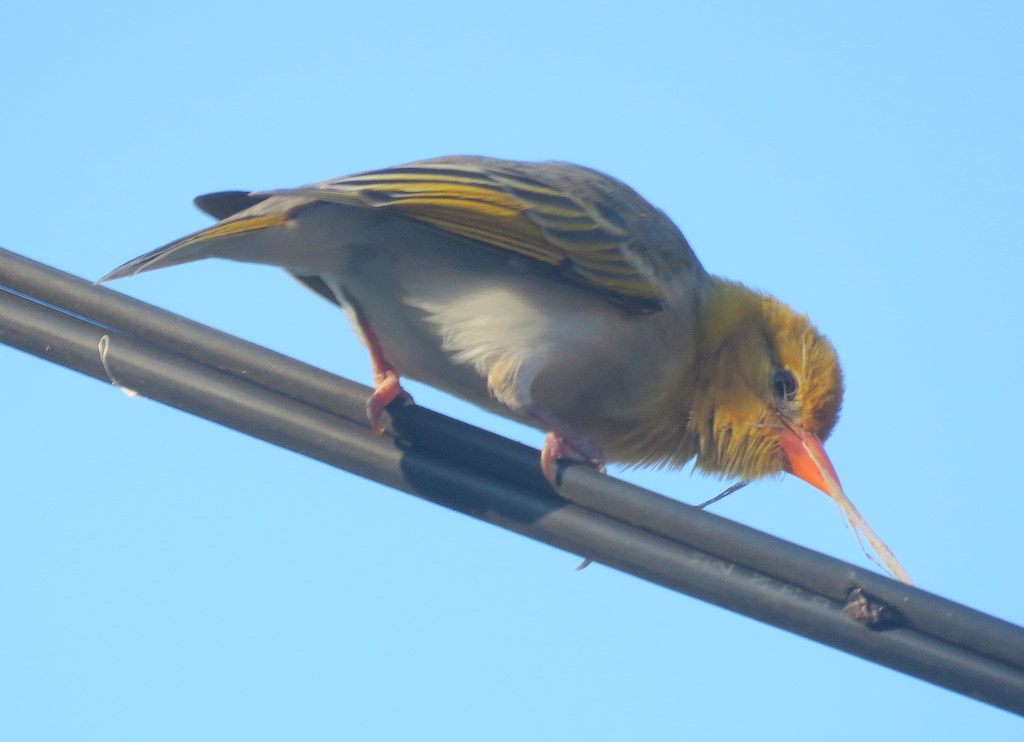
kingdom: Animalia
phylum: Chordata
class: Aves
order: Passeriformes
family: Ploceidae
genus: Anaplectes
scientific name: Anaplectes rubriceps
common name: Red-headed weaver
